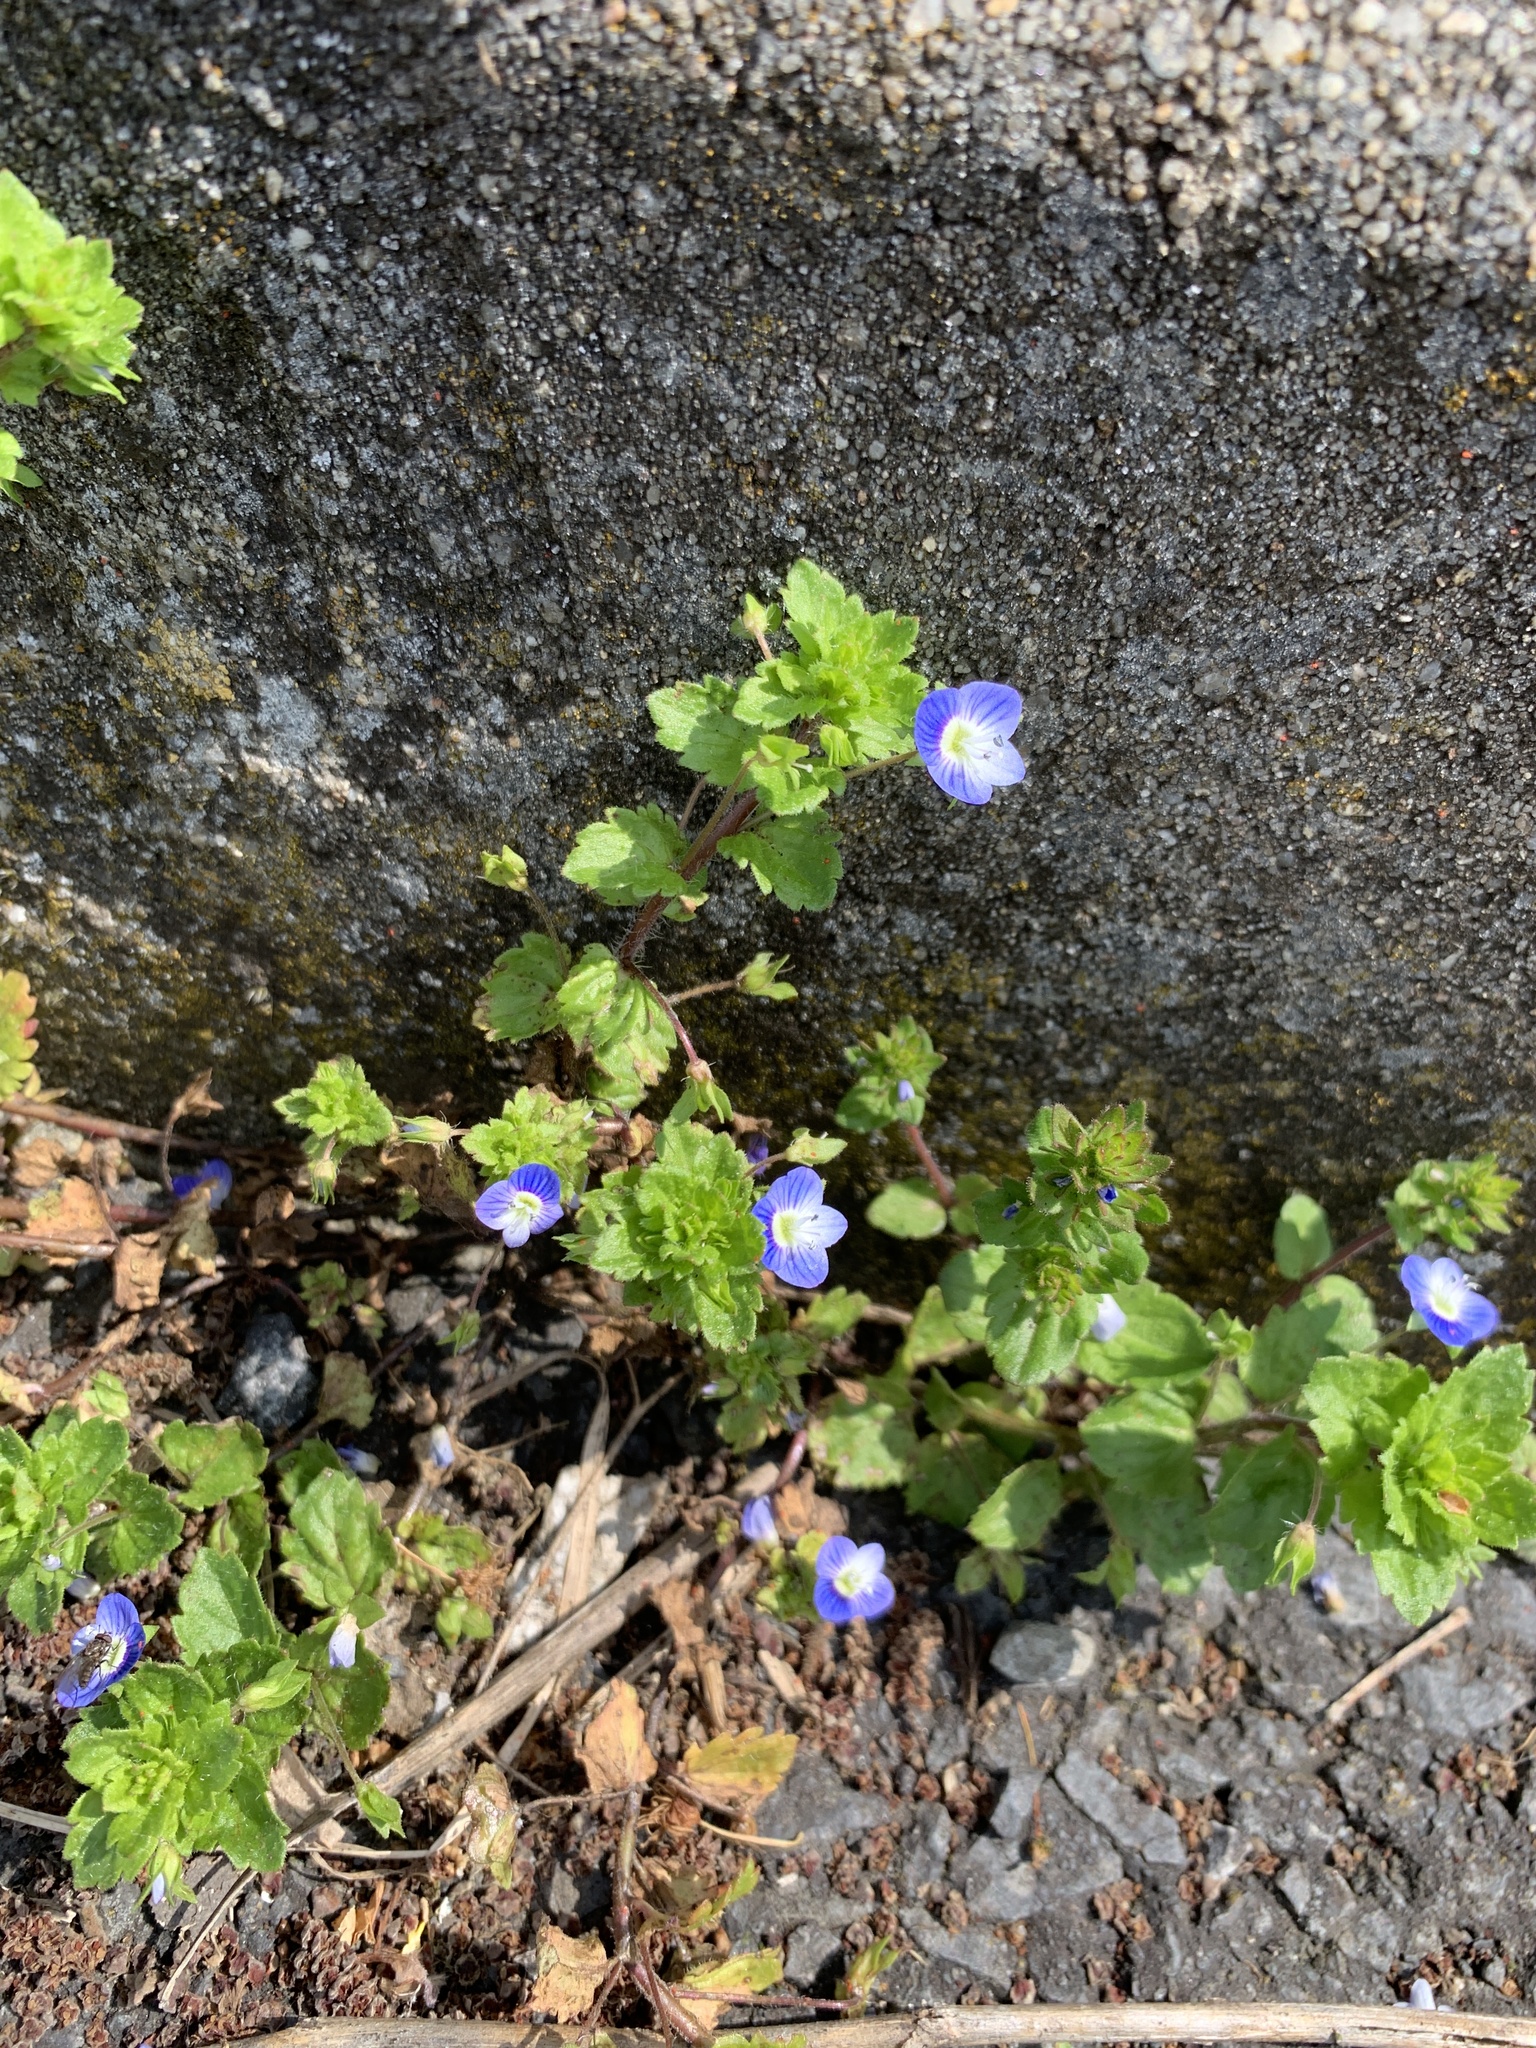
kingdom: Plantae
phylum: Tracheophyta
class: Magnoliopsida
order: Lamiales
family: Plantaginaceae
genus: Veronica
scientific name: Veronica persica
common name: Common field-speedwell
